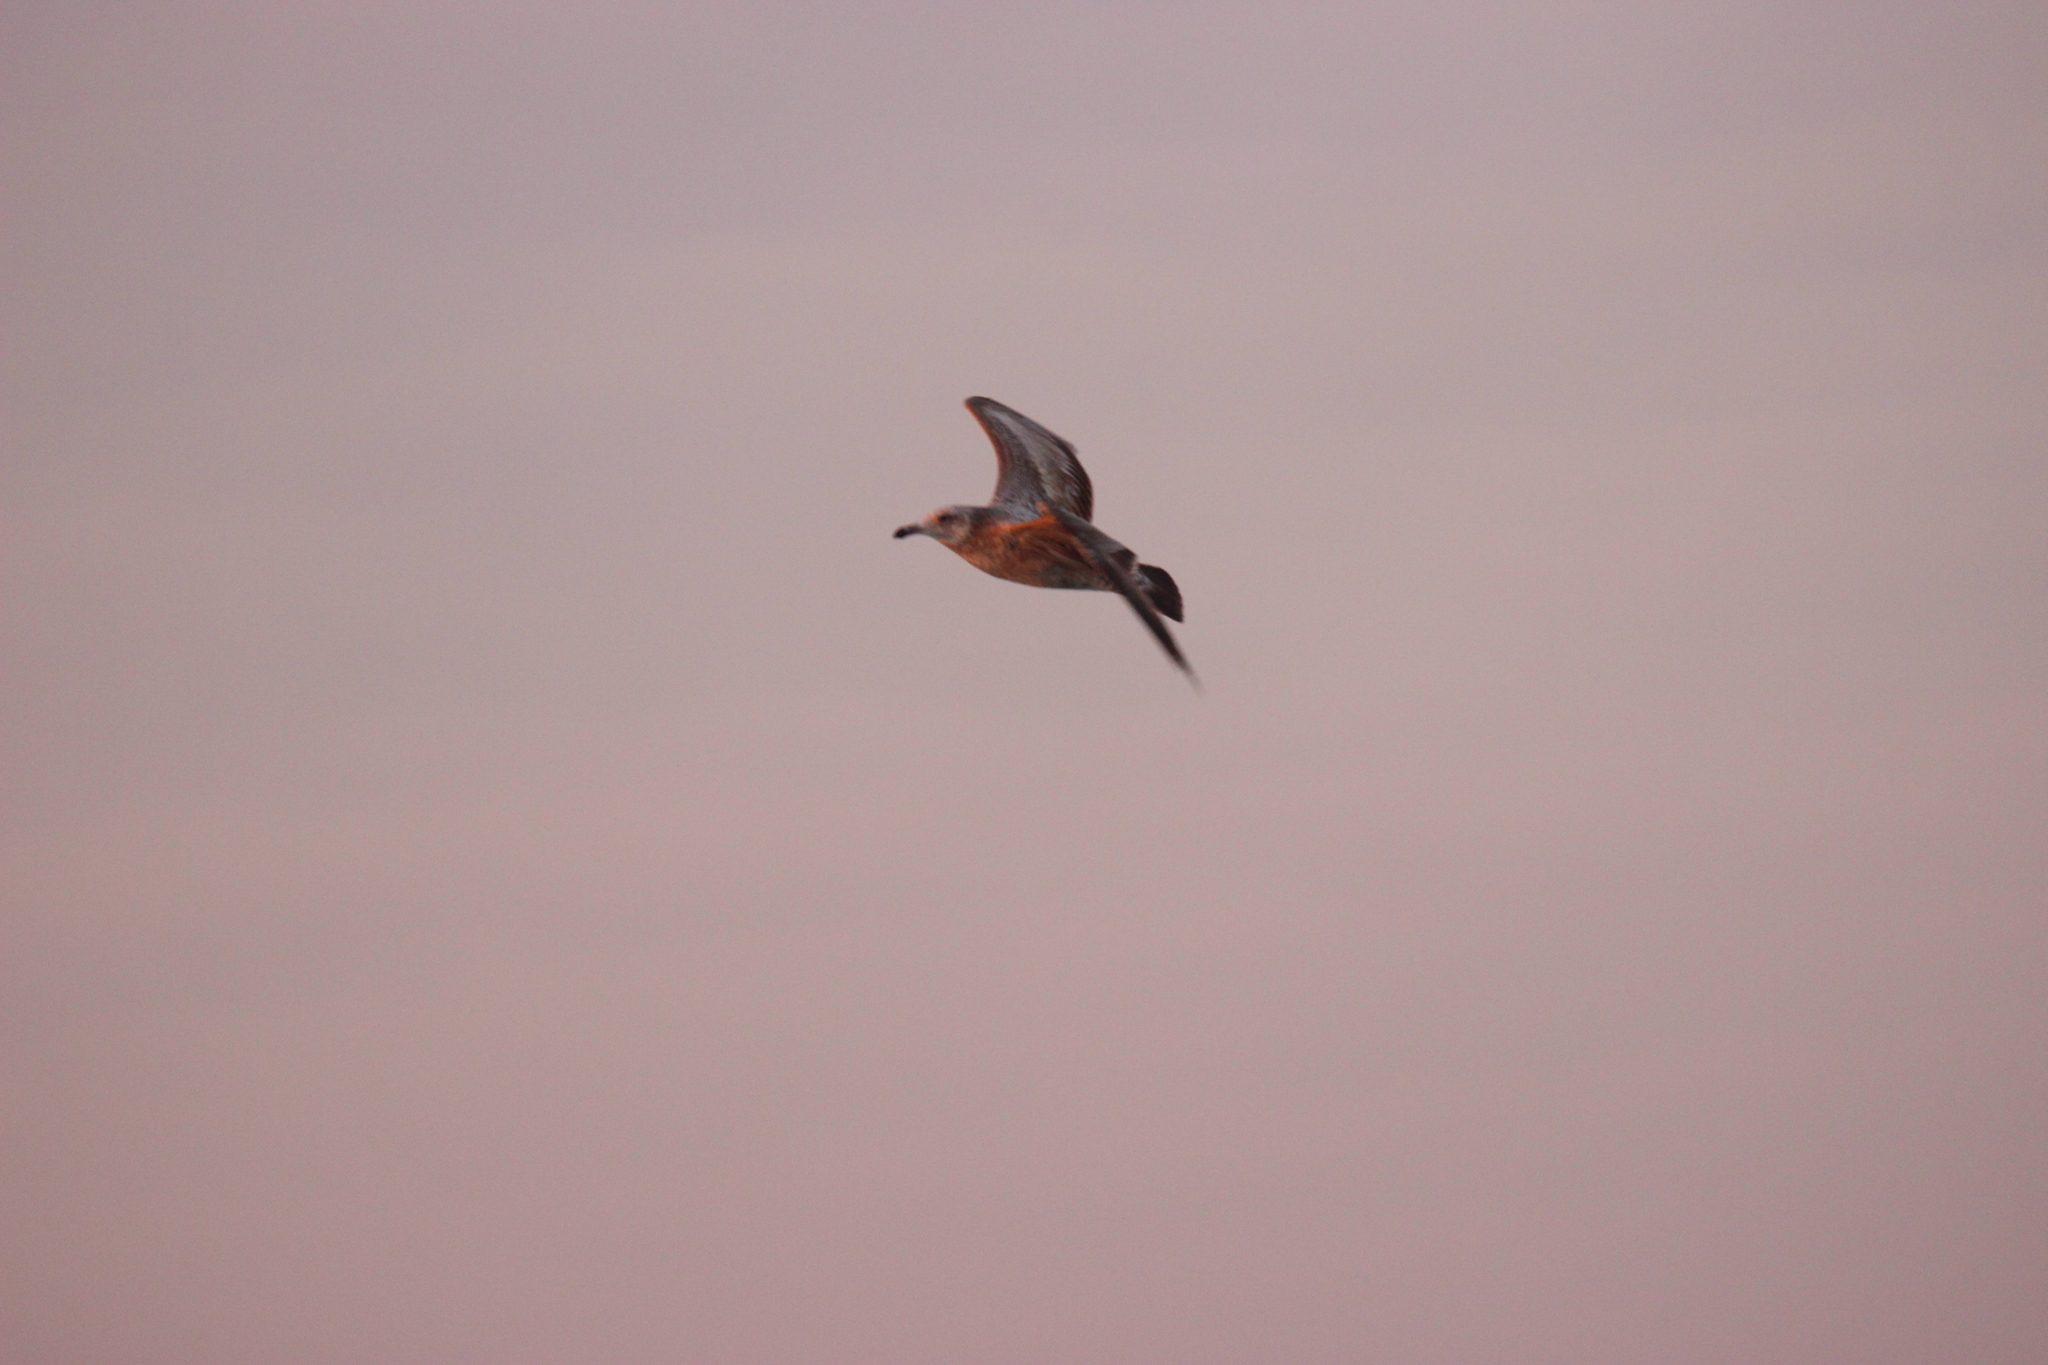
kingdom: Animalia
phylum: Chordata
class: Aves
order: Charadriiformes
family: Laridae
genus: Larus
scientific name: Larus argentatus
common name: Herring gull
